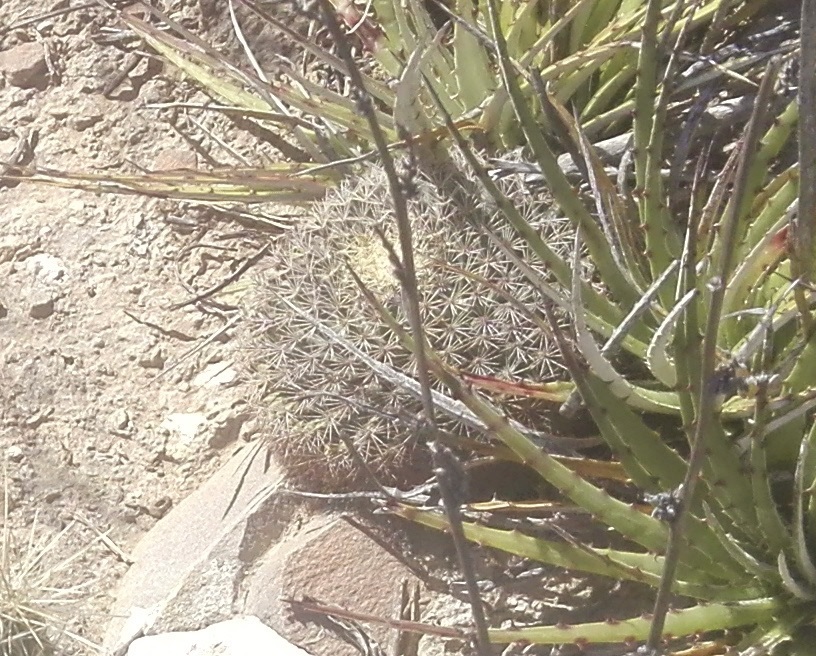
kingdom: Plantae
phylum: Tracheophyta
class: Magnoliopsida
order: Caryophyllales
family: Cactaceae
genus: Mammillaria
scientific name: Mammillaria heyderi
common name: Little nipple cactus
